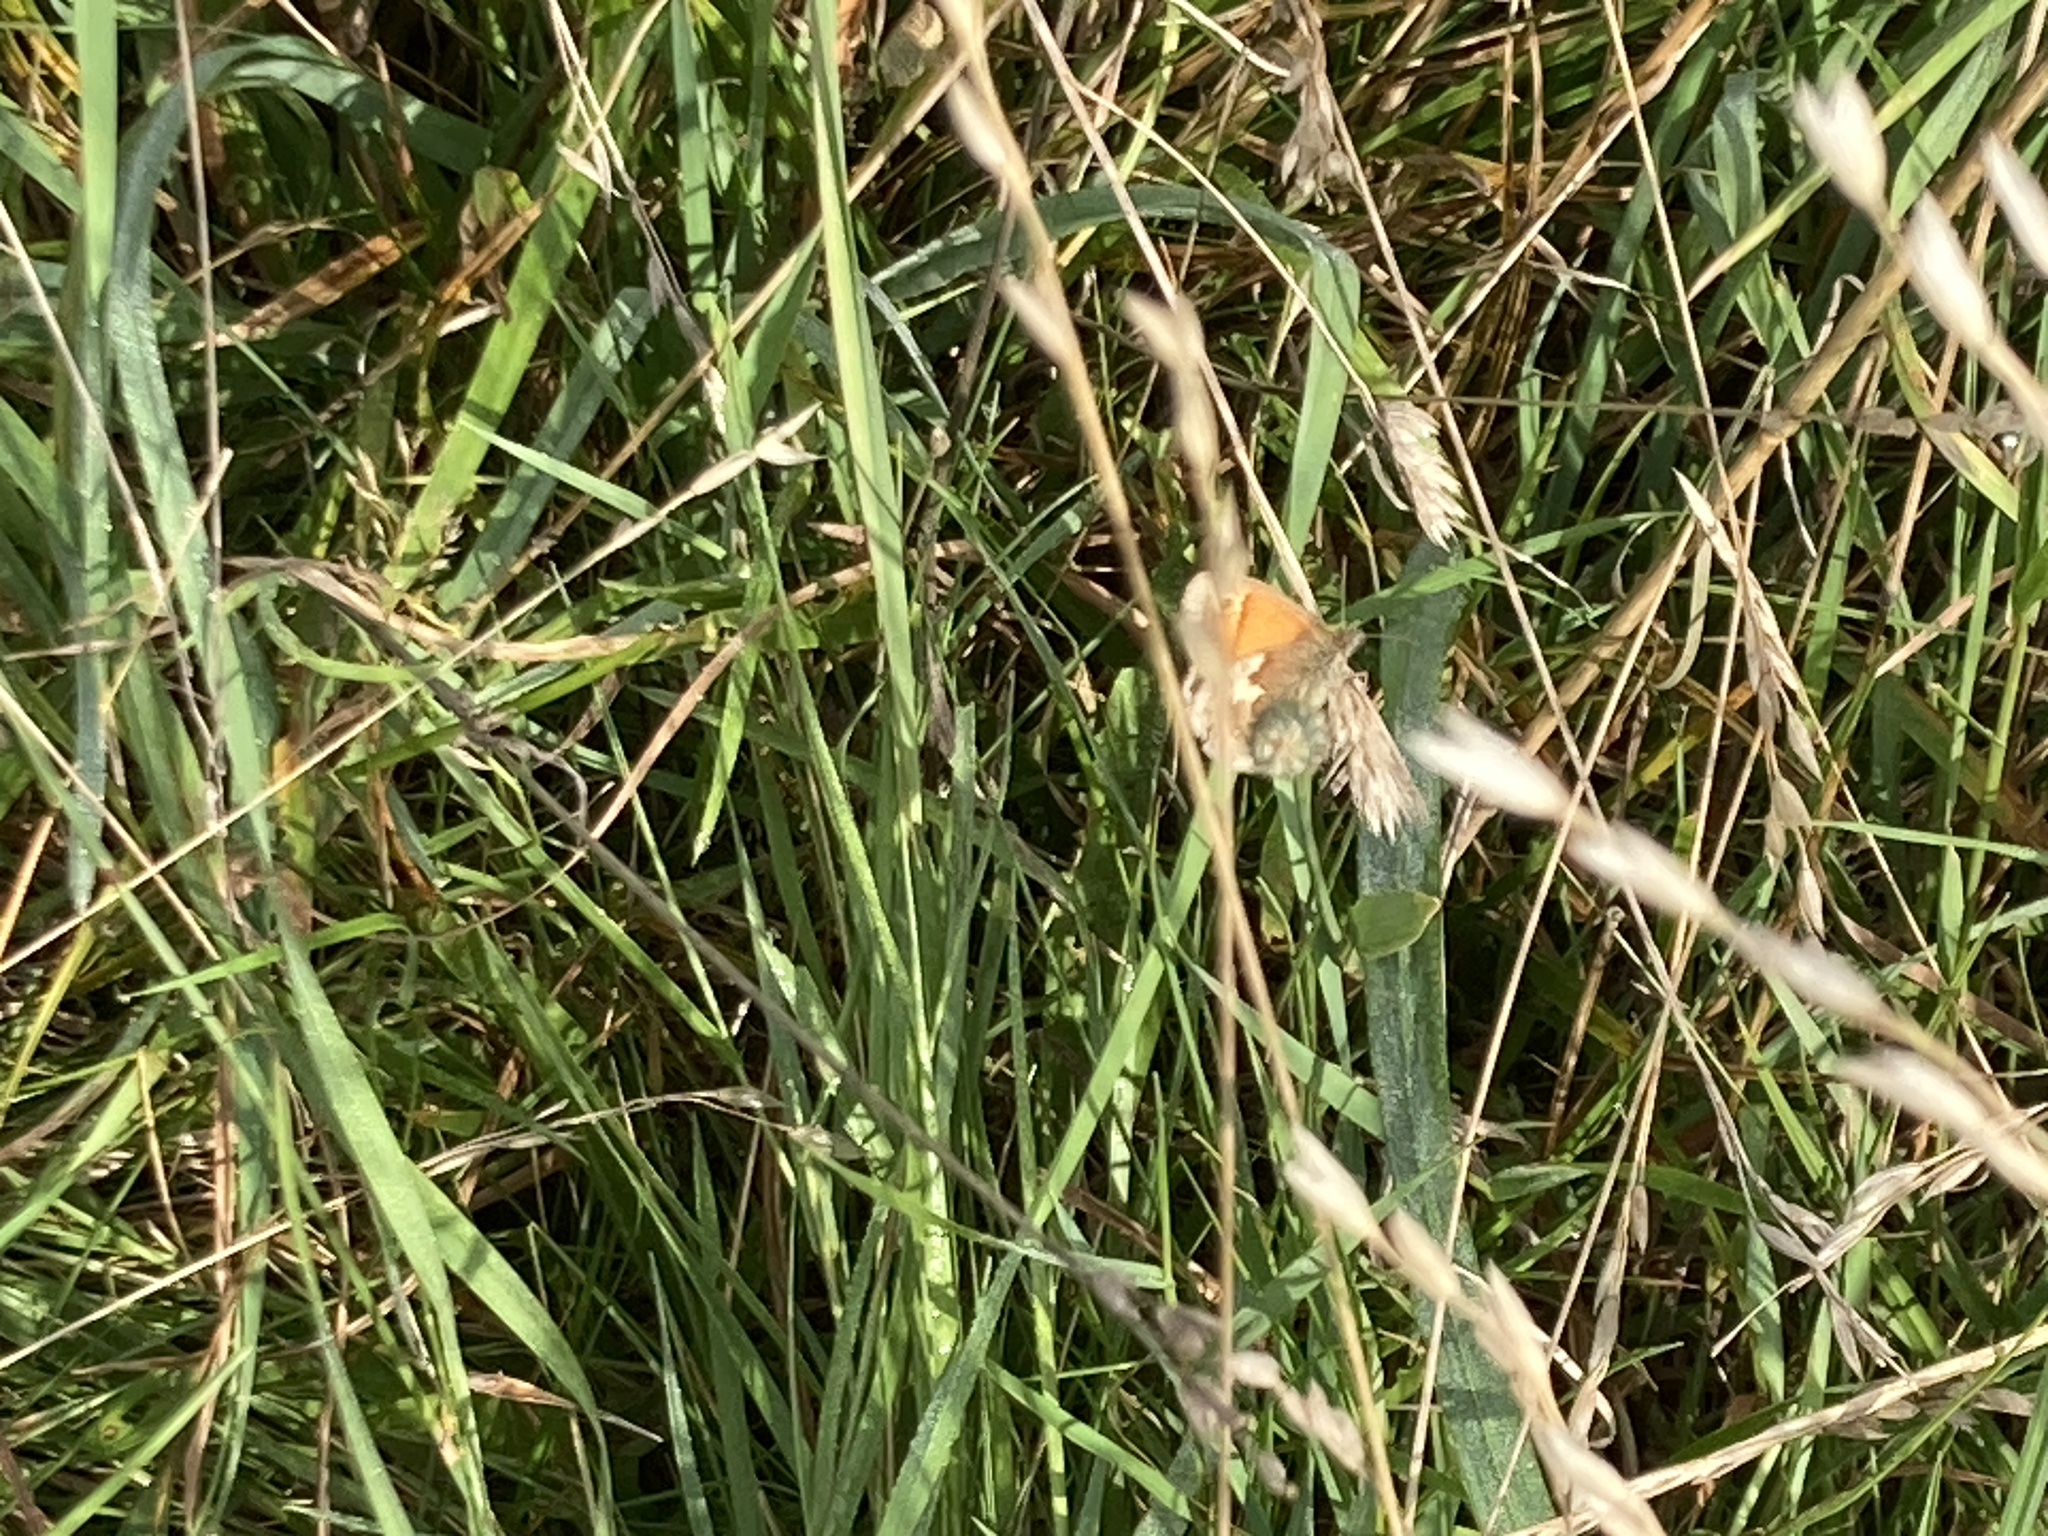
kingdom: Animalia
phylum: Arthropoda
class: Insecta
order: Lepidoptera
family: Nymphalidae
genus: Coenonympha
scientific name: Coenonympha pamphilus
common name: Small heath
